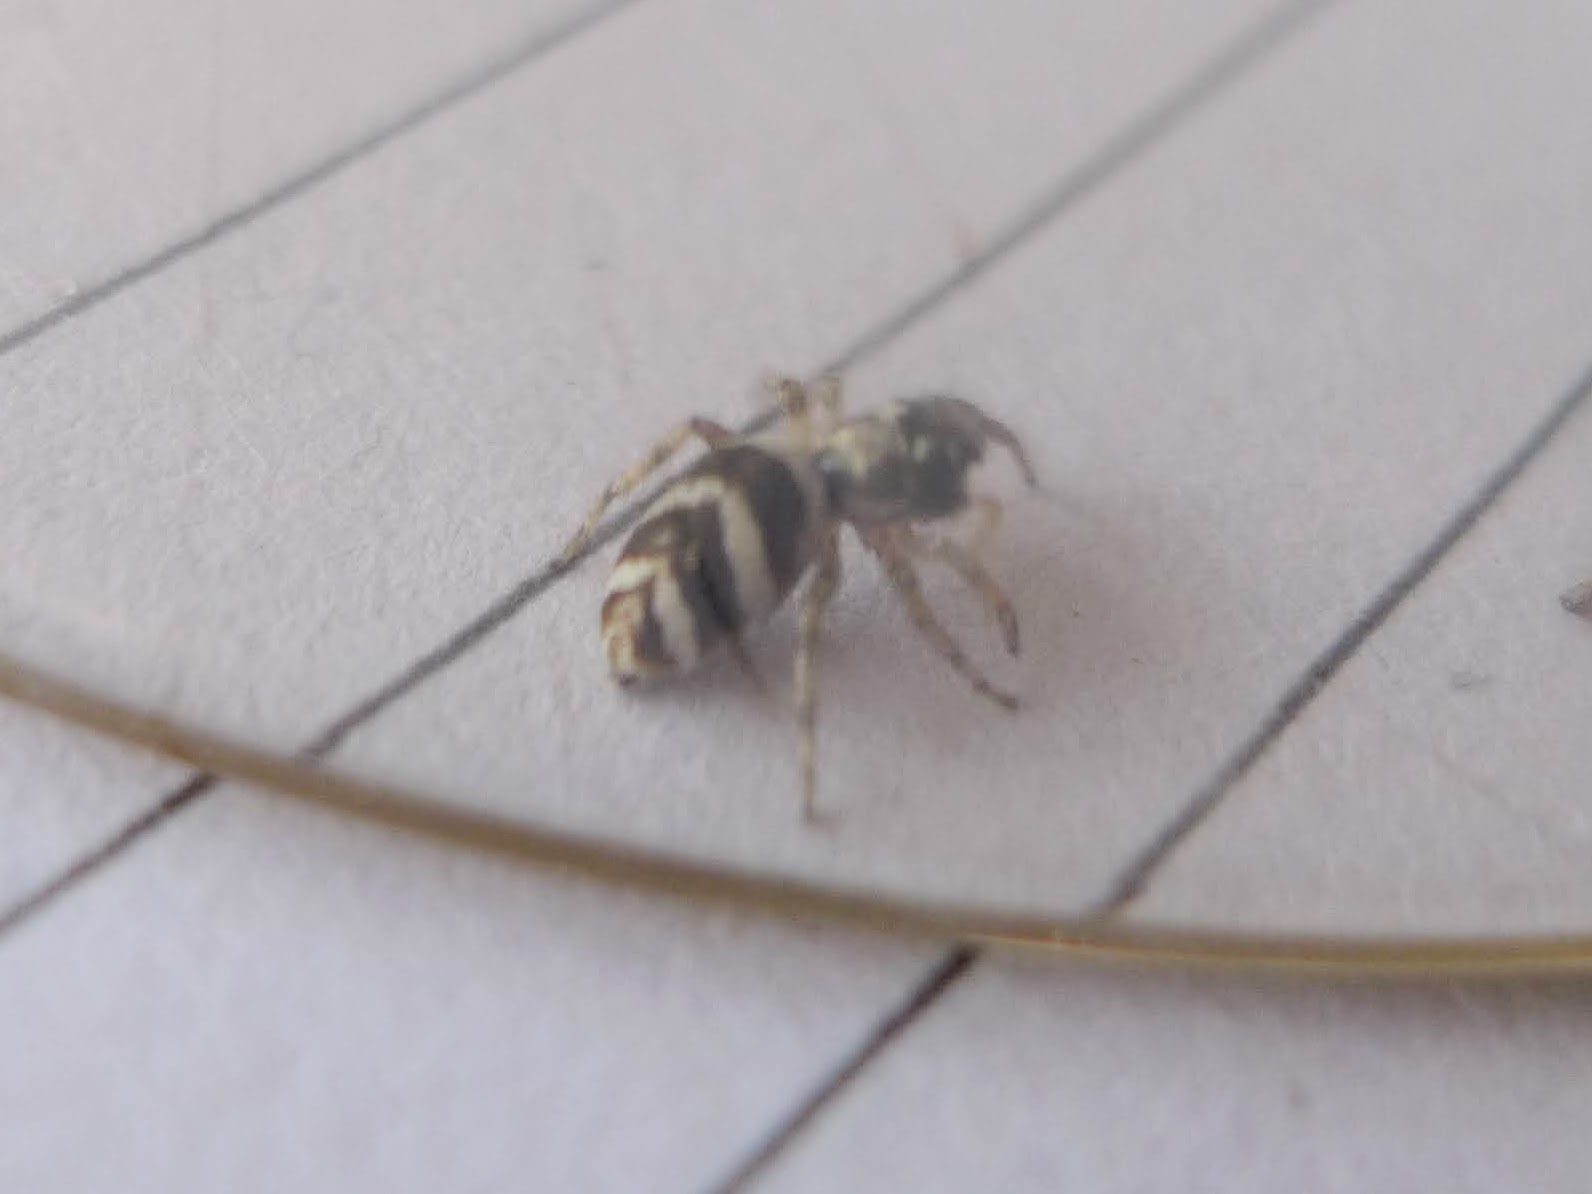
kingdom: Animalia
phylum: Arthropoda
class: Arachnida
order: Araneae
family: Salticidae
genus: Salticus
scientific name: Salticus scenicus
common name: Zebra jumper
